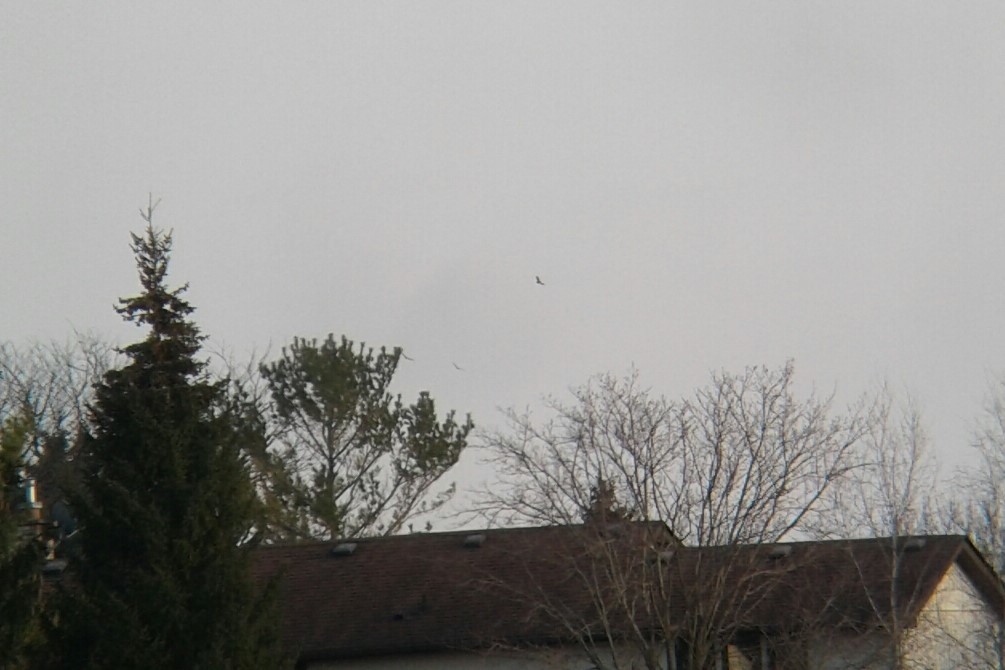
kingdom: Animalia
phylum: Chordata
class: Aves
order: Accipitriformes
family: Cathartidae
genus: Cathartes
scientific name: Cathartes aura
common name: Turkey vulture
